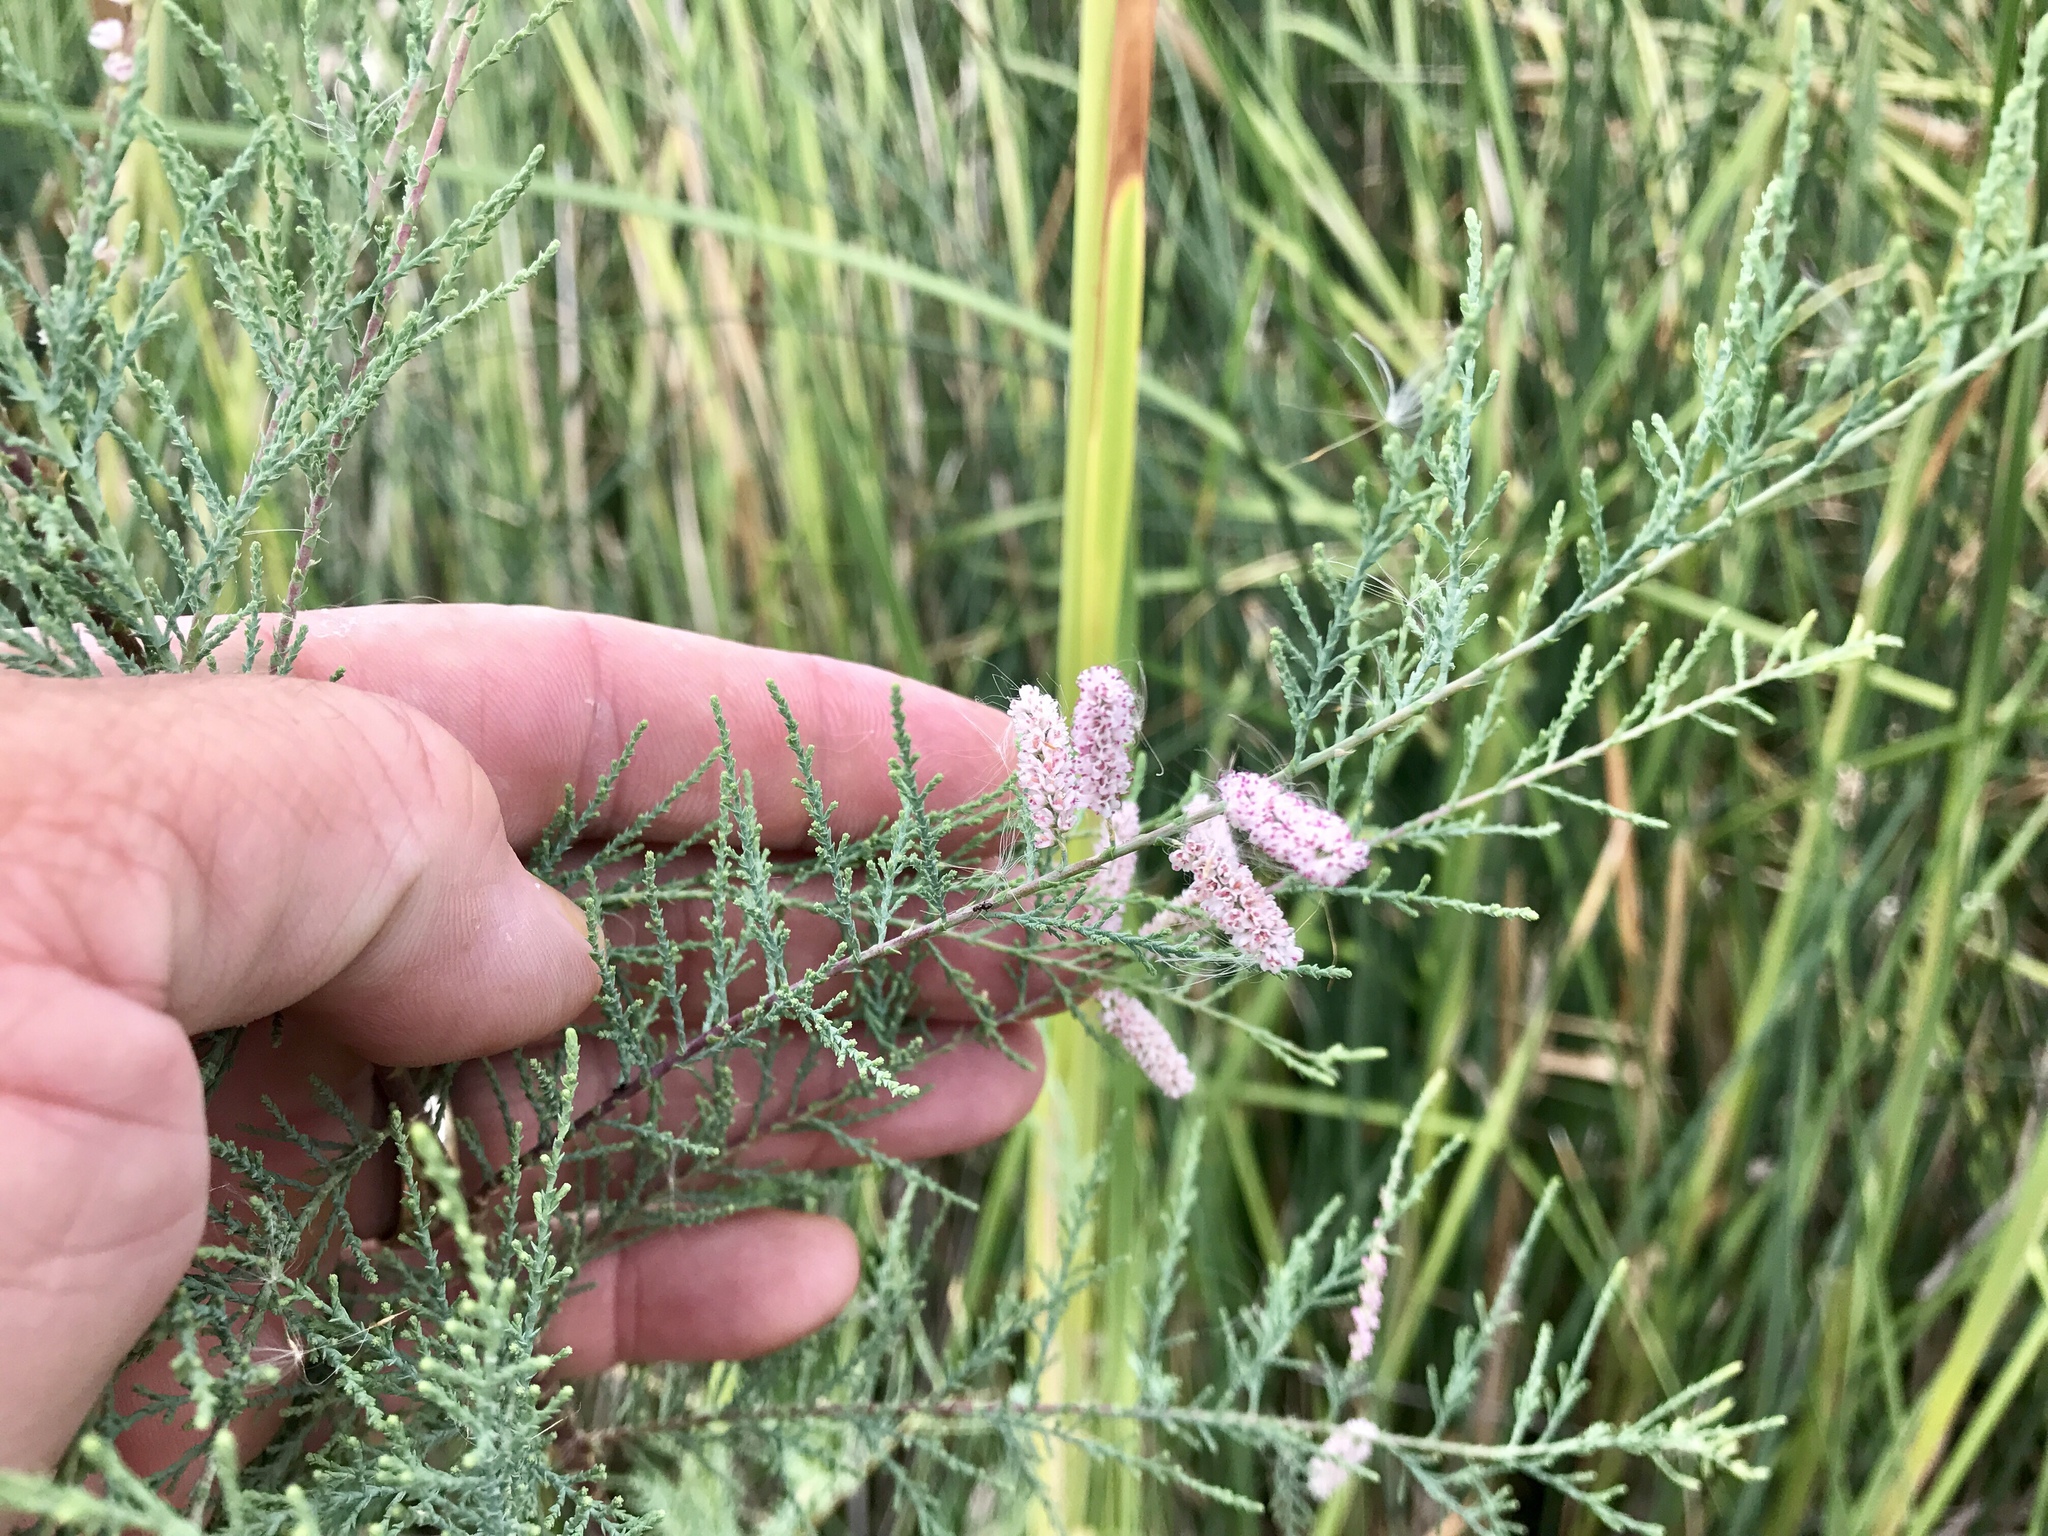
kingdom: Plantae
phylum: Tracheophyta
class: Magnoliopsida
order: Caryophyllales
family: Tamaricaceae
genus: Tamarix
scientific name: Tamarix
